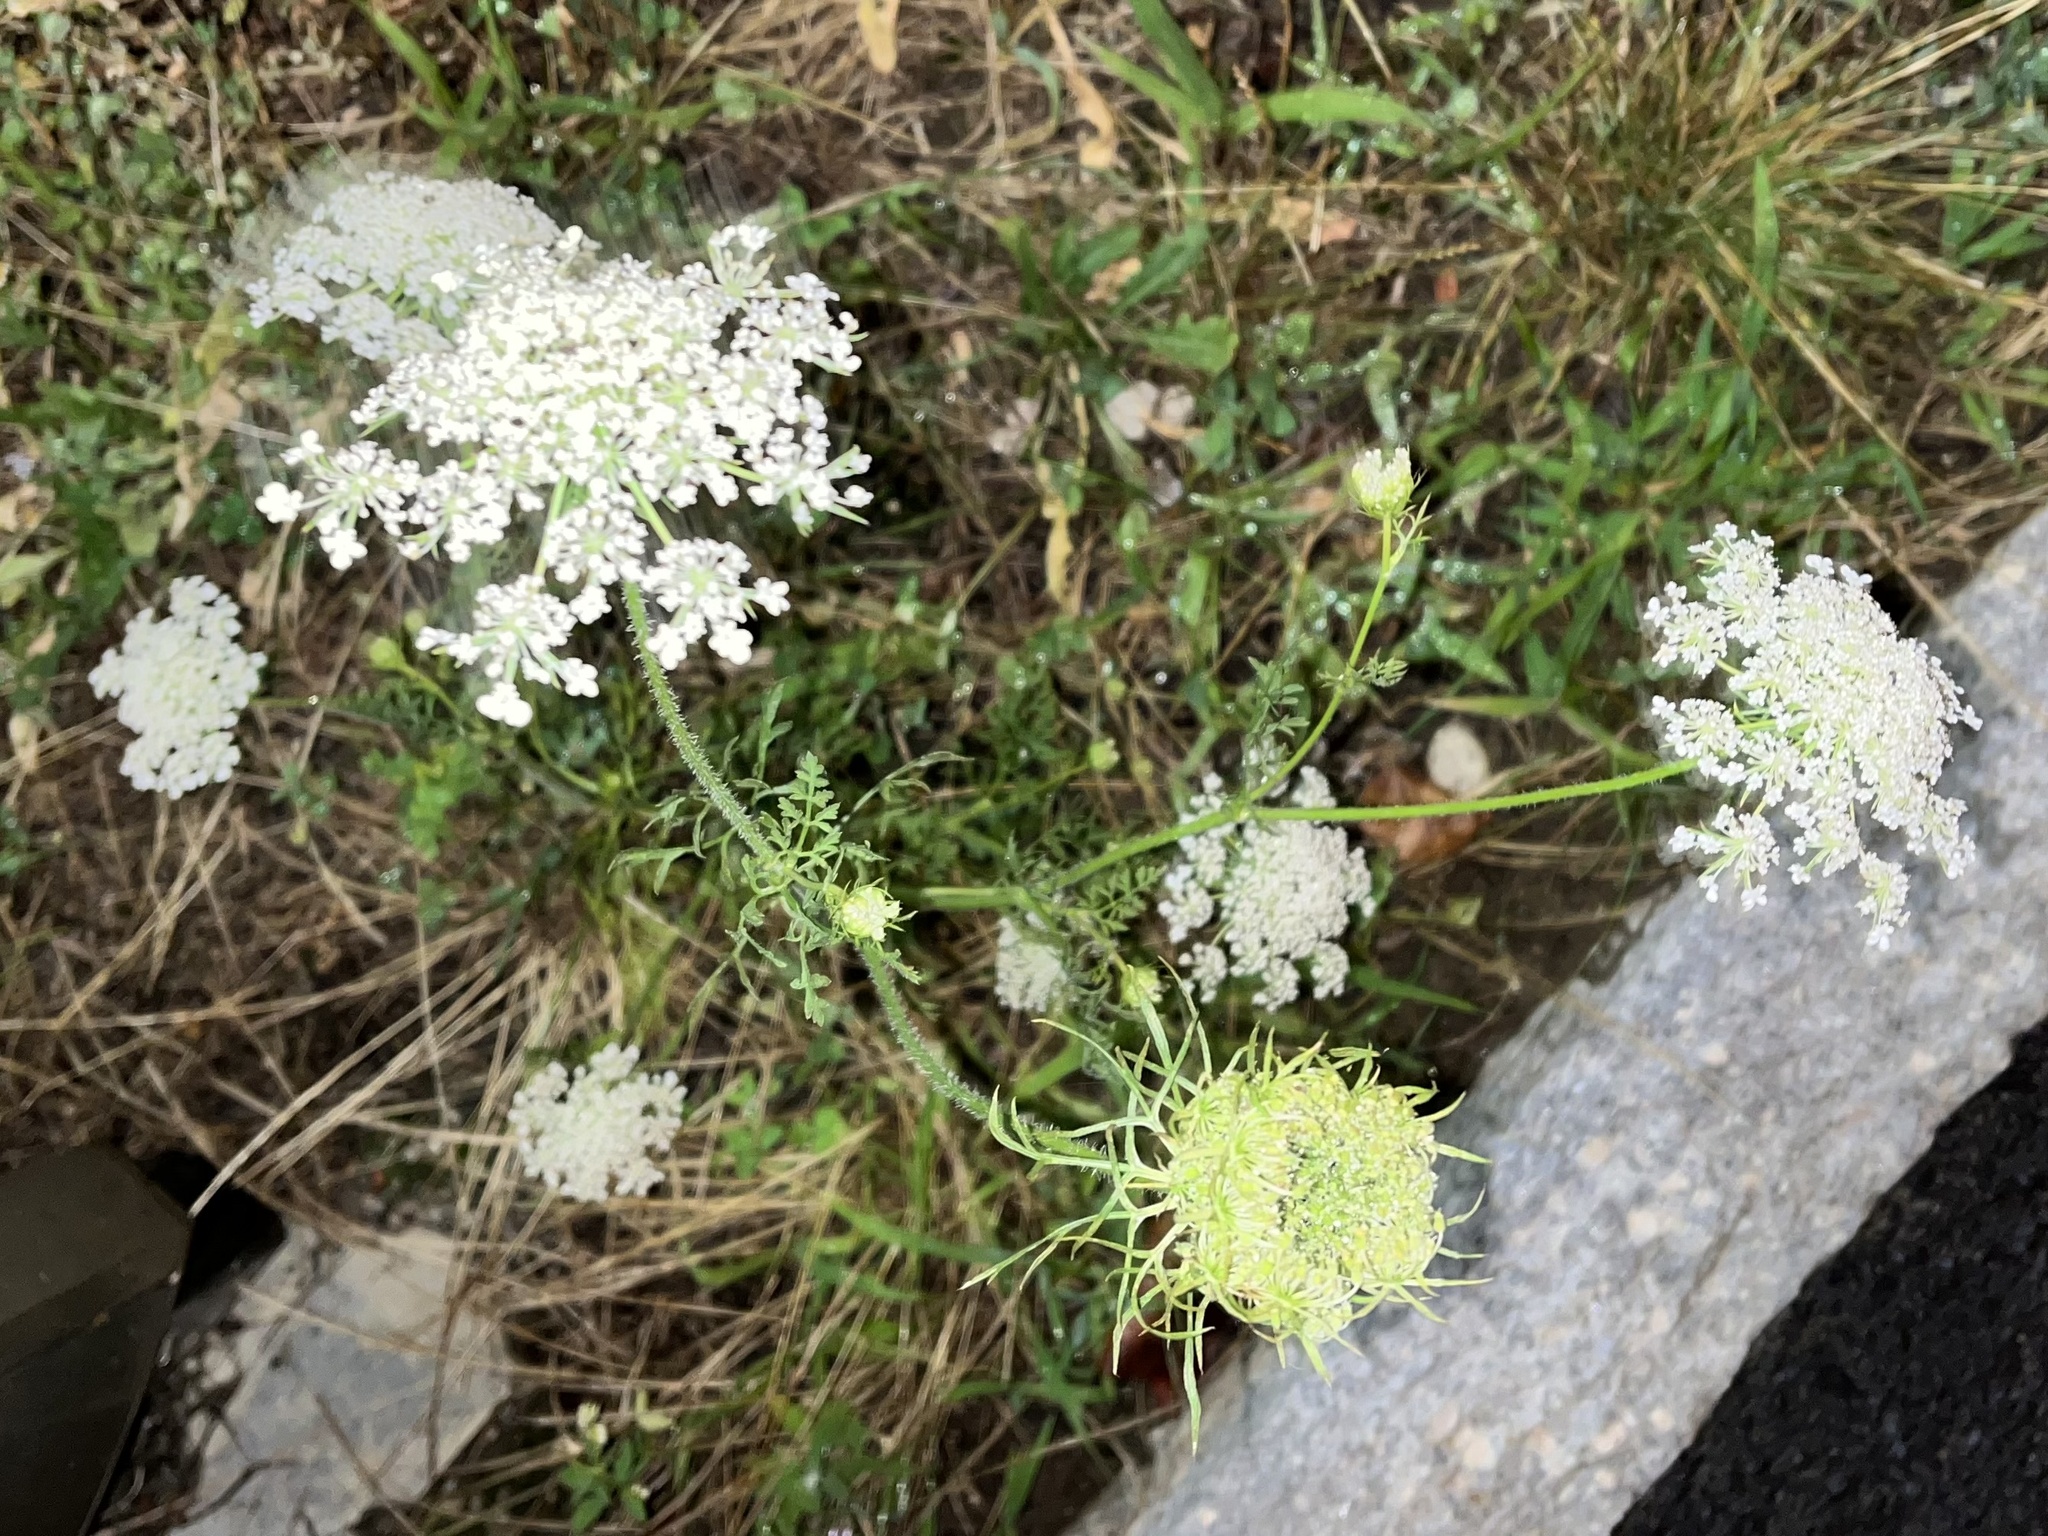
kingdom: Plantae
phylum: Tracheophyta
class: Magnoliopsida
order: Apiales
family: Apiaceae
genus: Daucus
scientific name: Daucus carota
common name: Wild carrot
